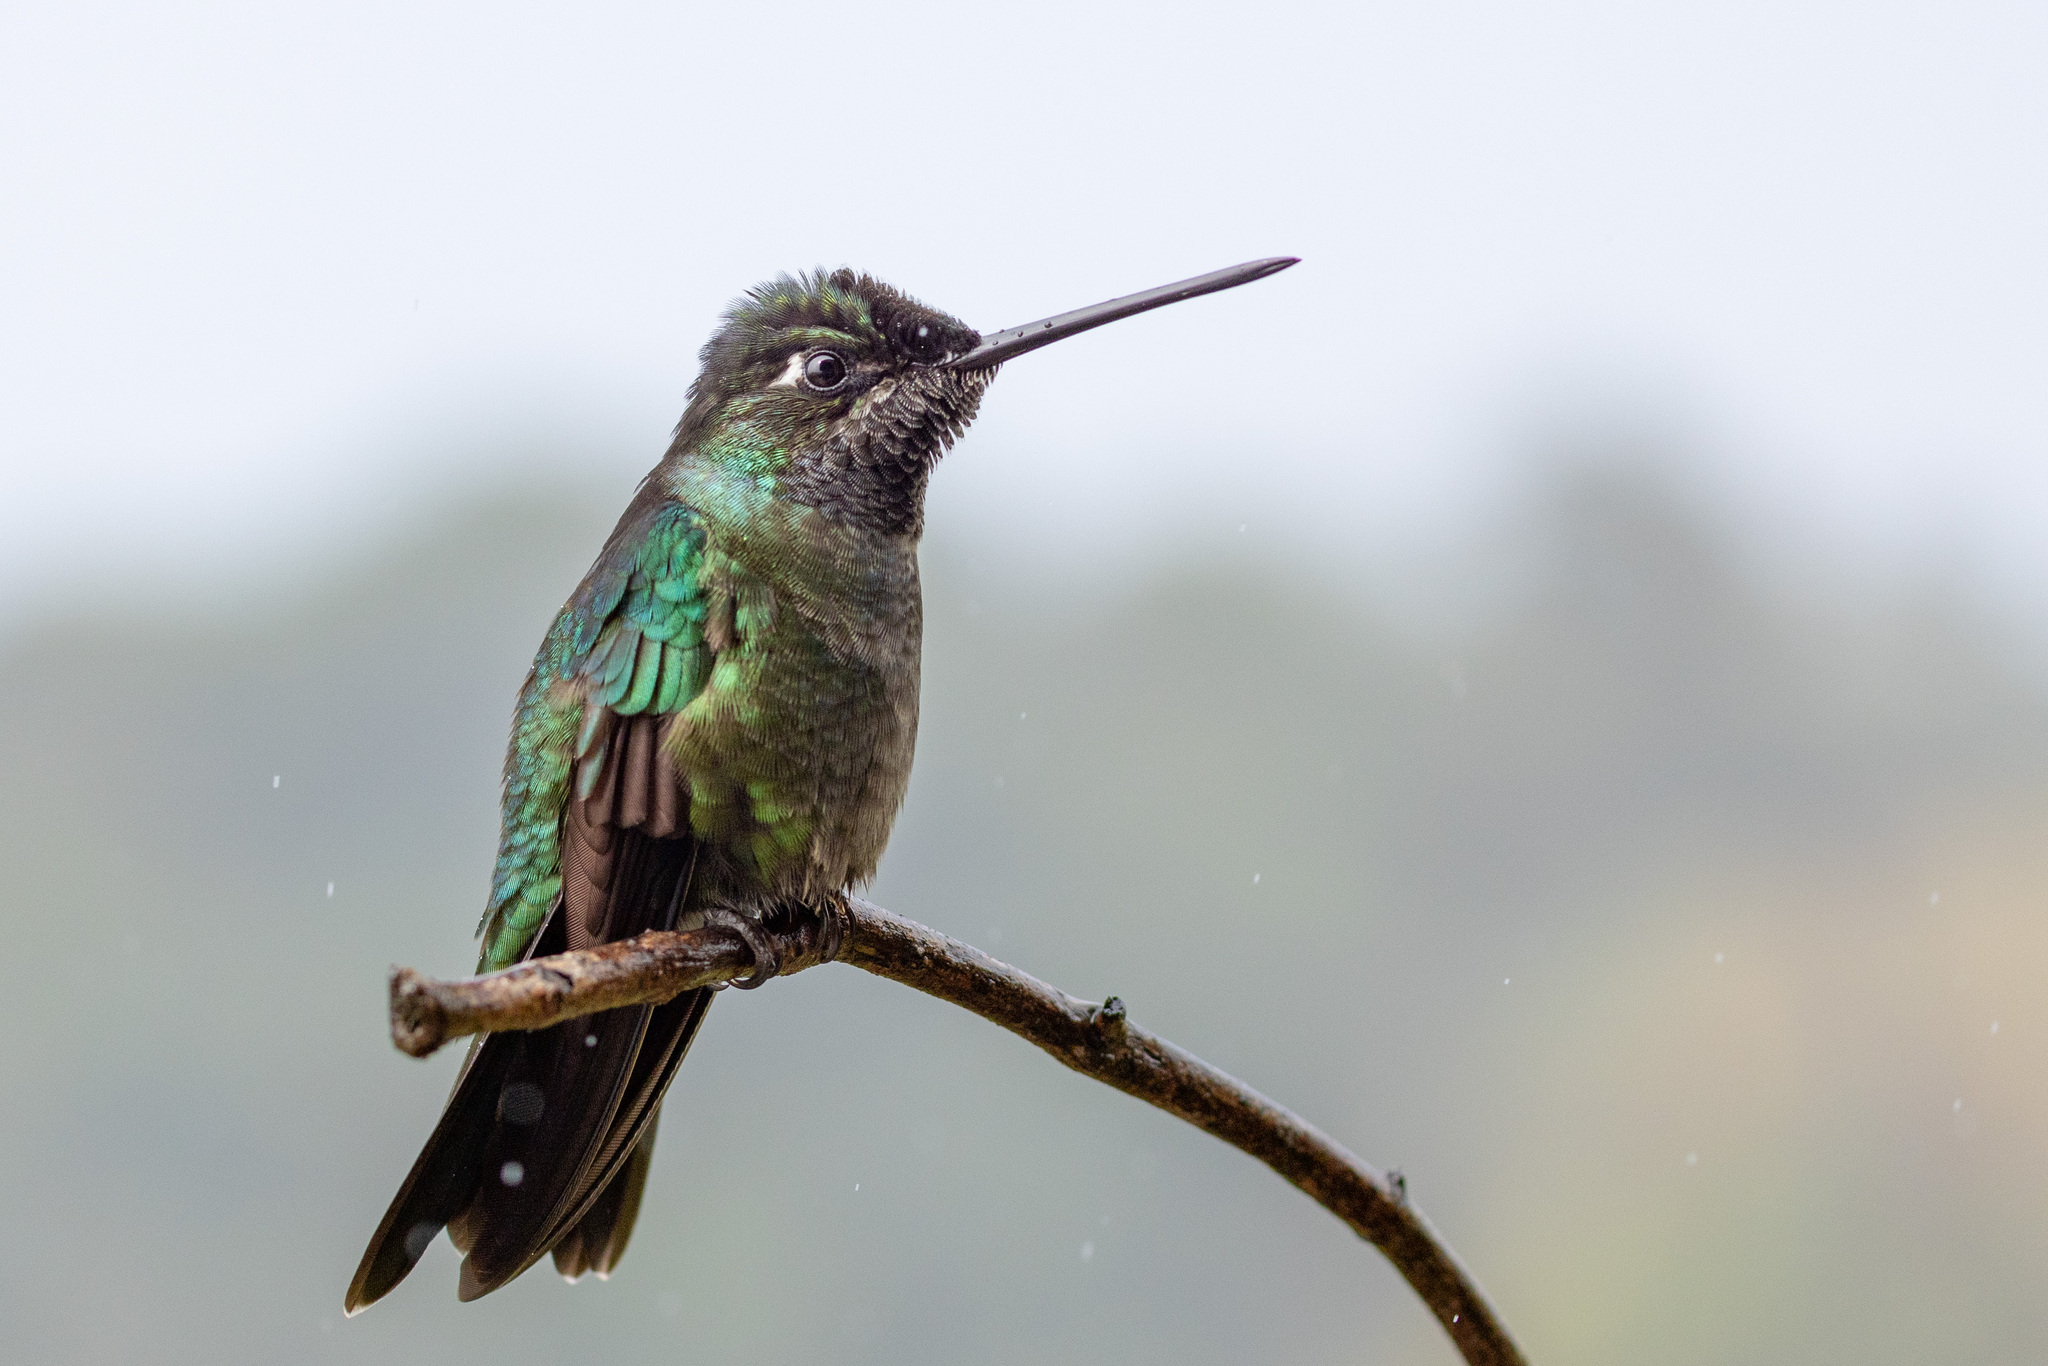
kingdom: Animalia
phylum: Chordata
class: Aves
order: Apodiformes
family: Trochilidae
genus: Eugenes
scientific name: Eugenes spectabilis
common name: Talamanca hummingbird
